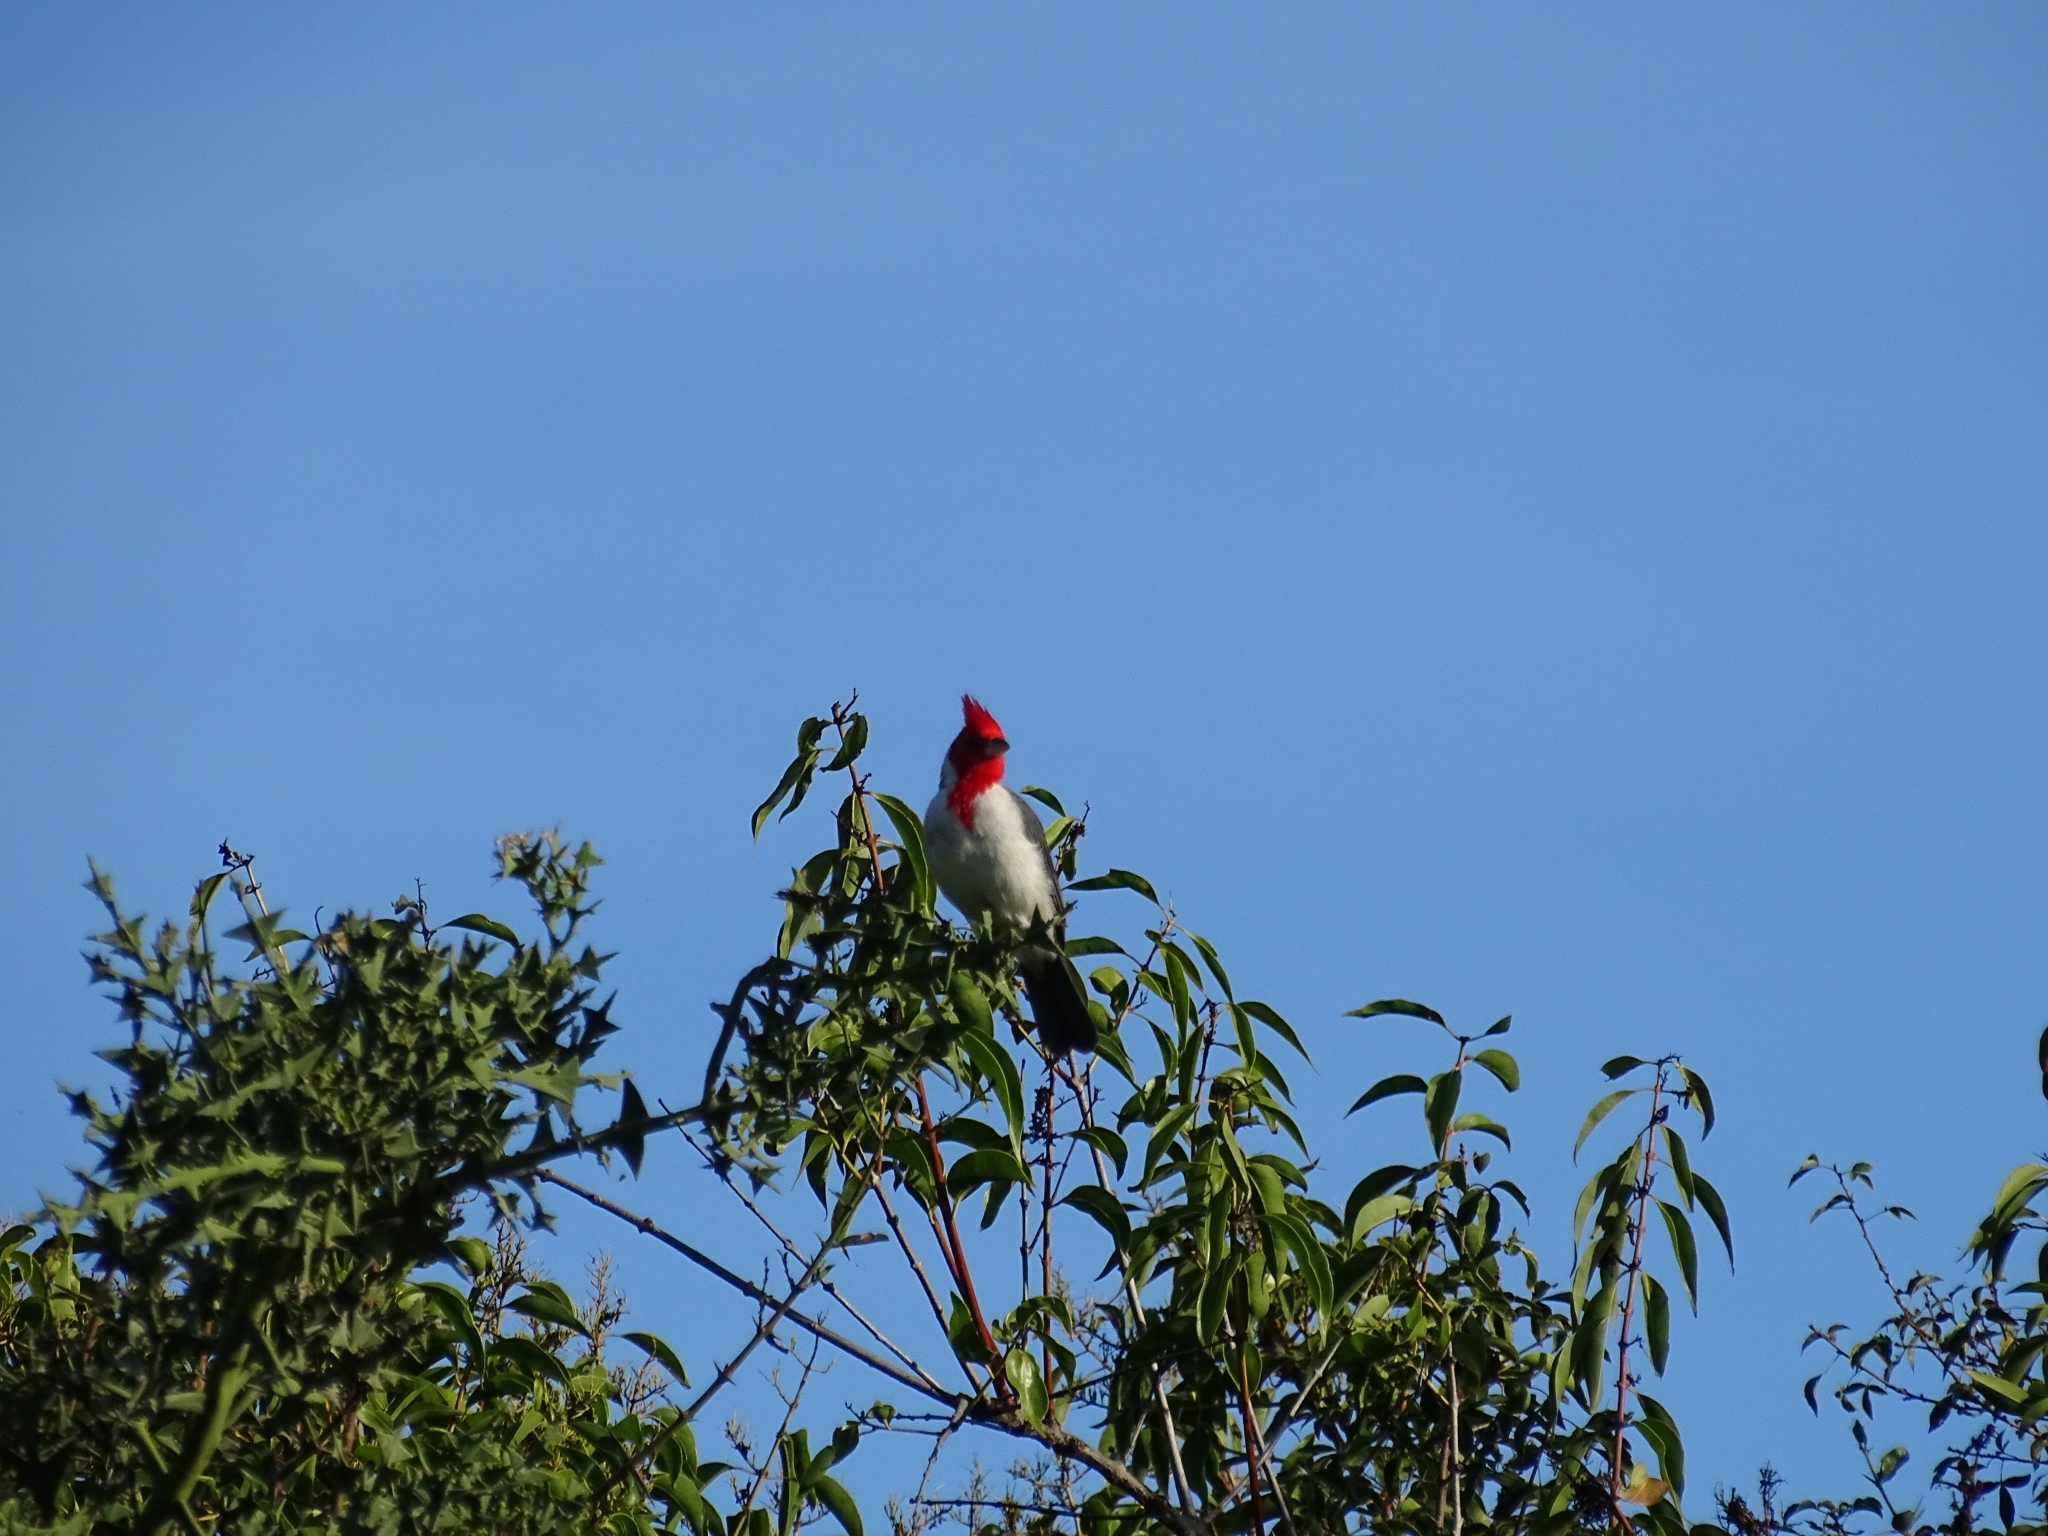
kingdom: Animalia
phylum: Chordata
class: Aves
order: Passeriformes
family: Thraupidae
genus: Paroaria
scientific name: Paroaria coronata
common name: Red-crested cardinal
